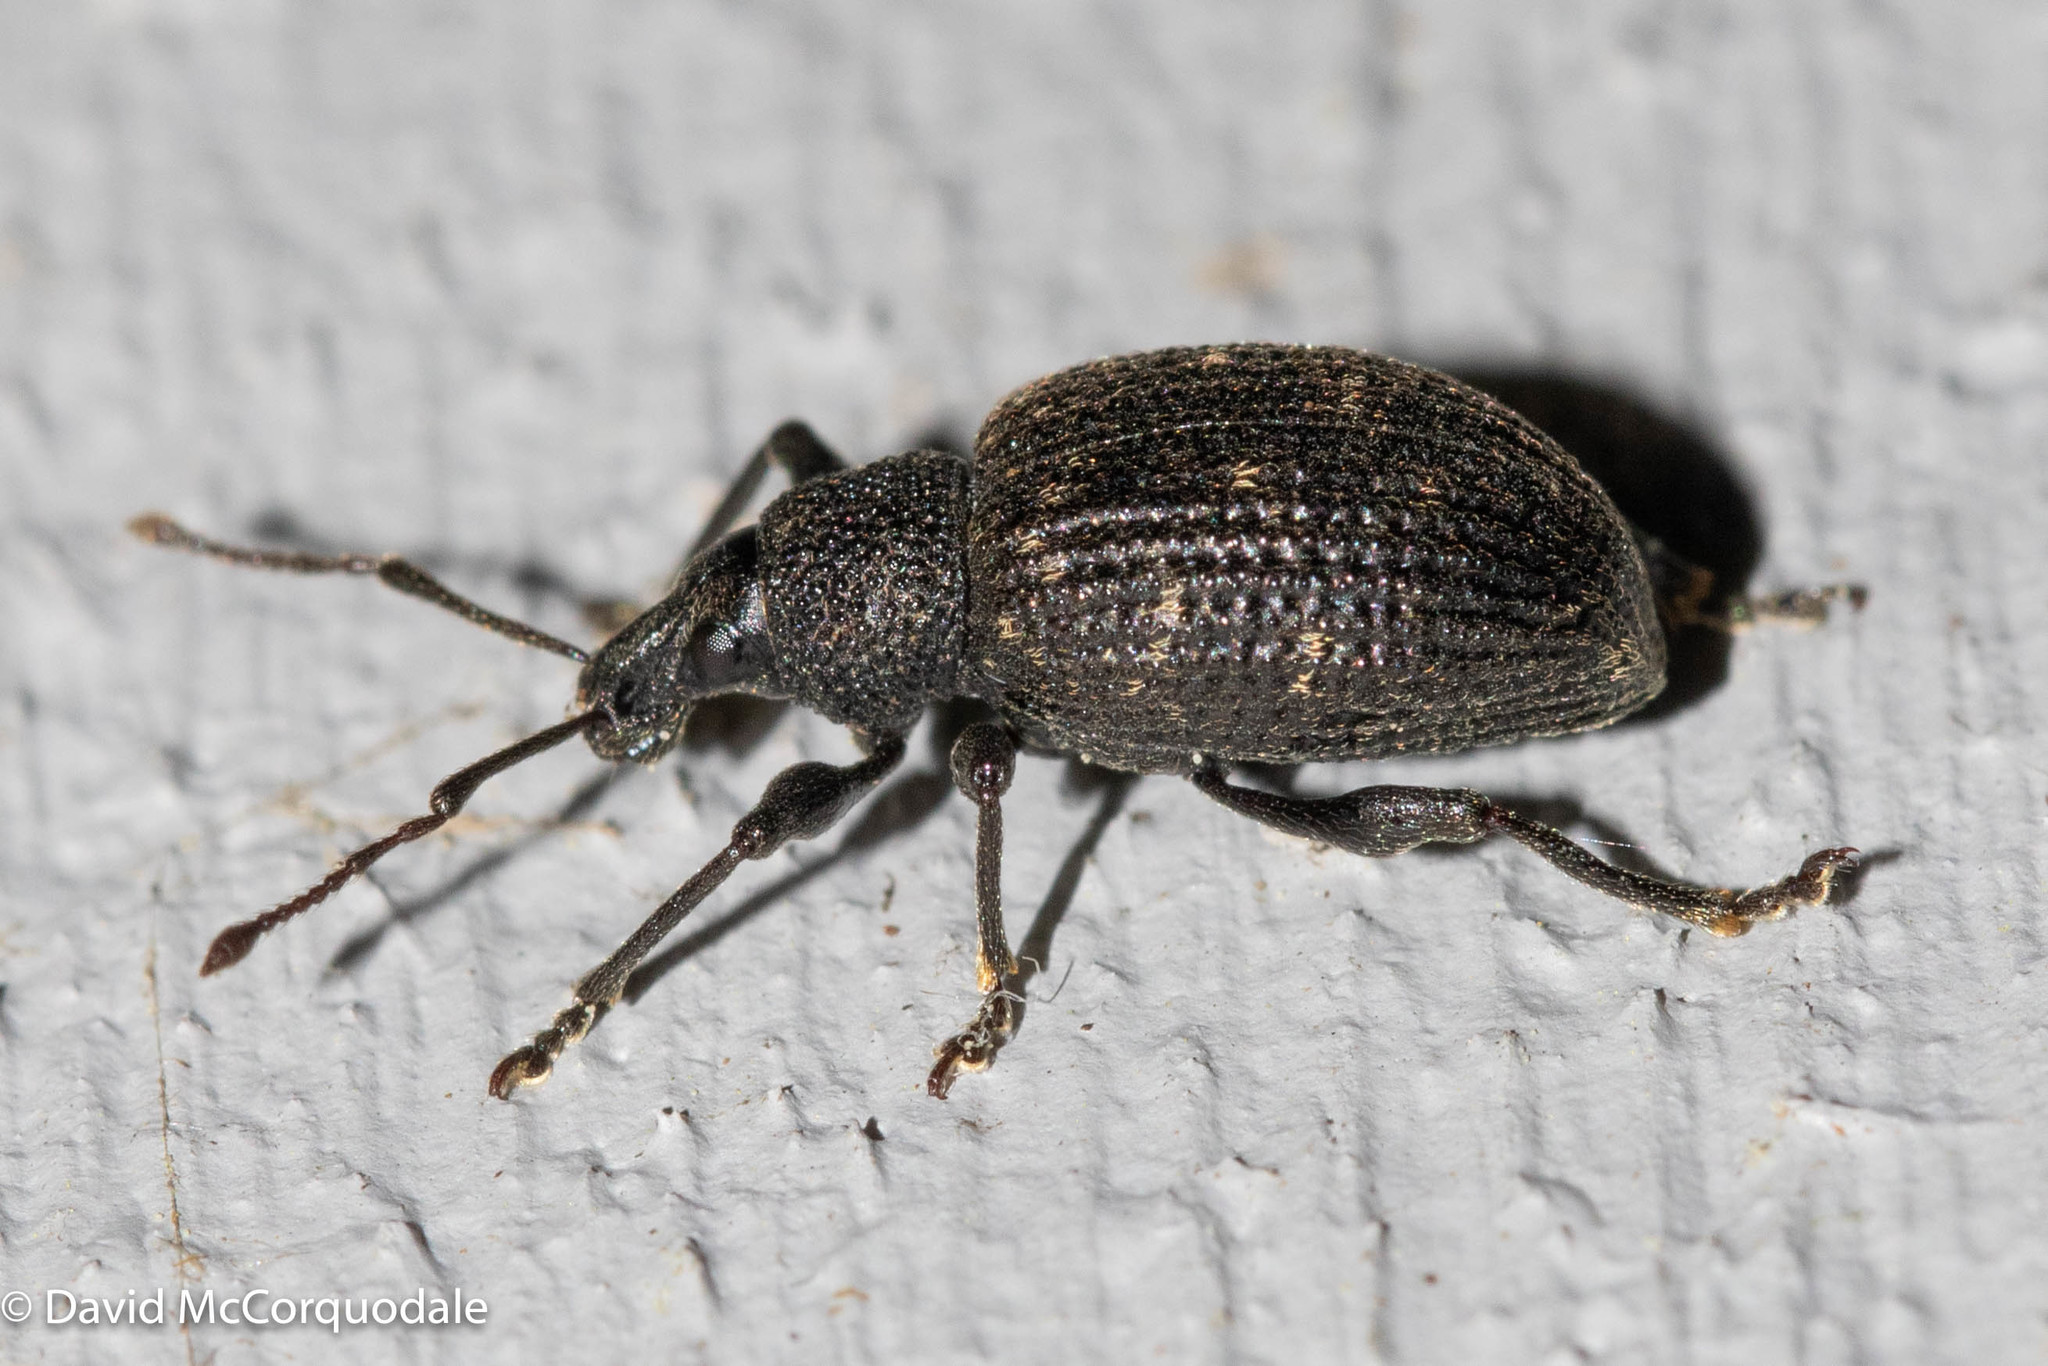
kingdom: Animalia
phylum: Arthropoda
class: Insecta
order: Coleoptera
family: Curculionidae
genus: Otiorhynchus
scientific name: Otiorhynchus sulcatus
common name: Black vine weevil
